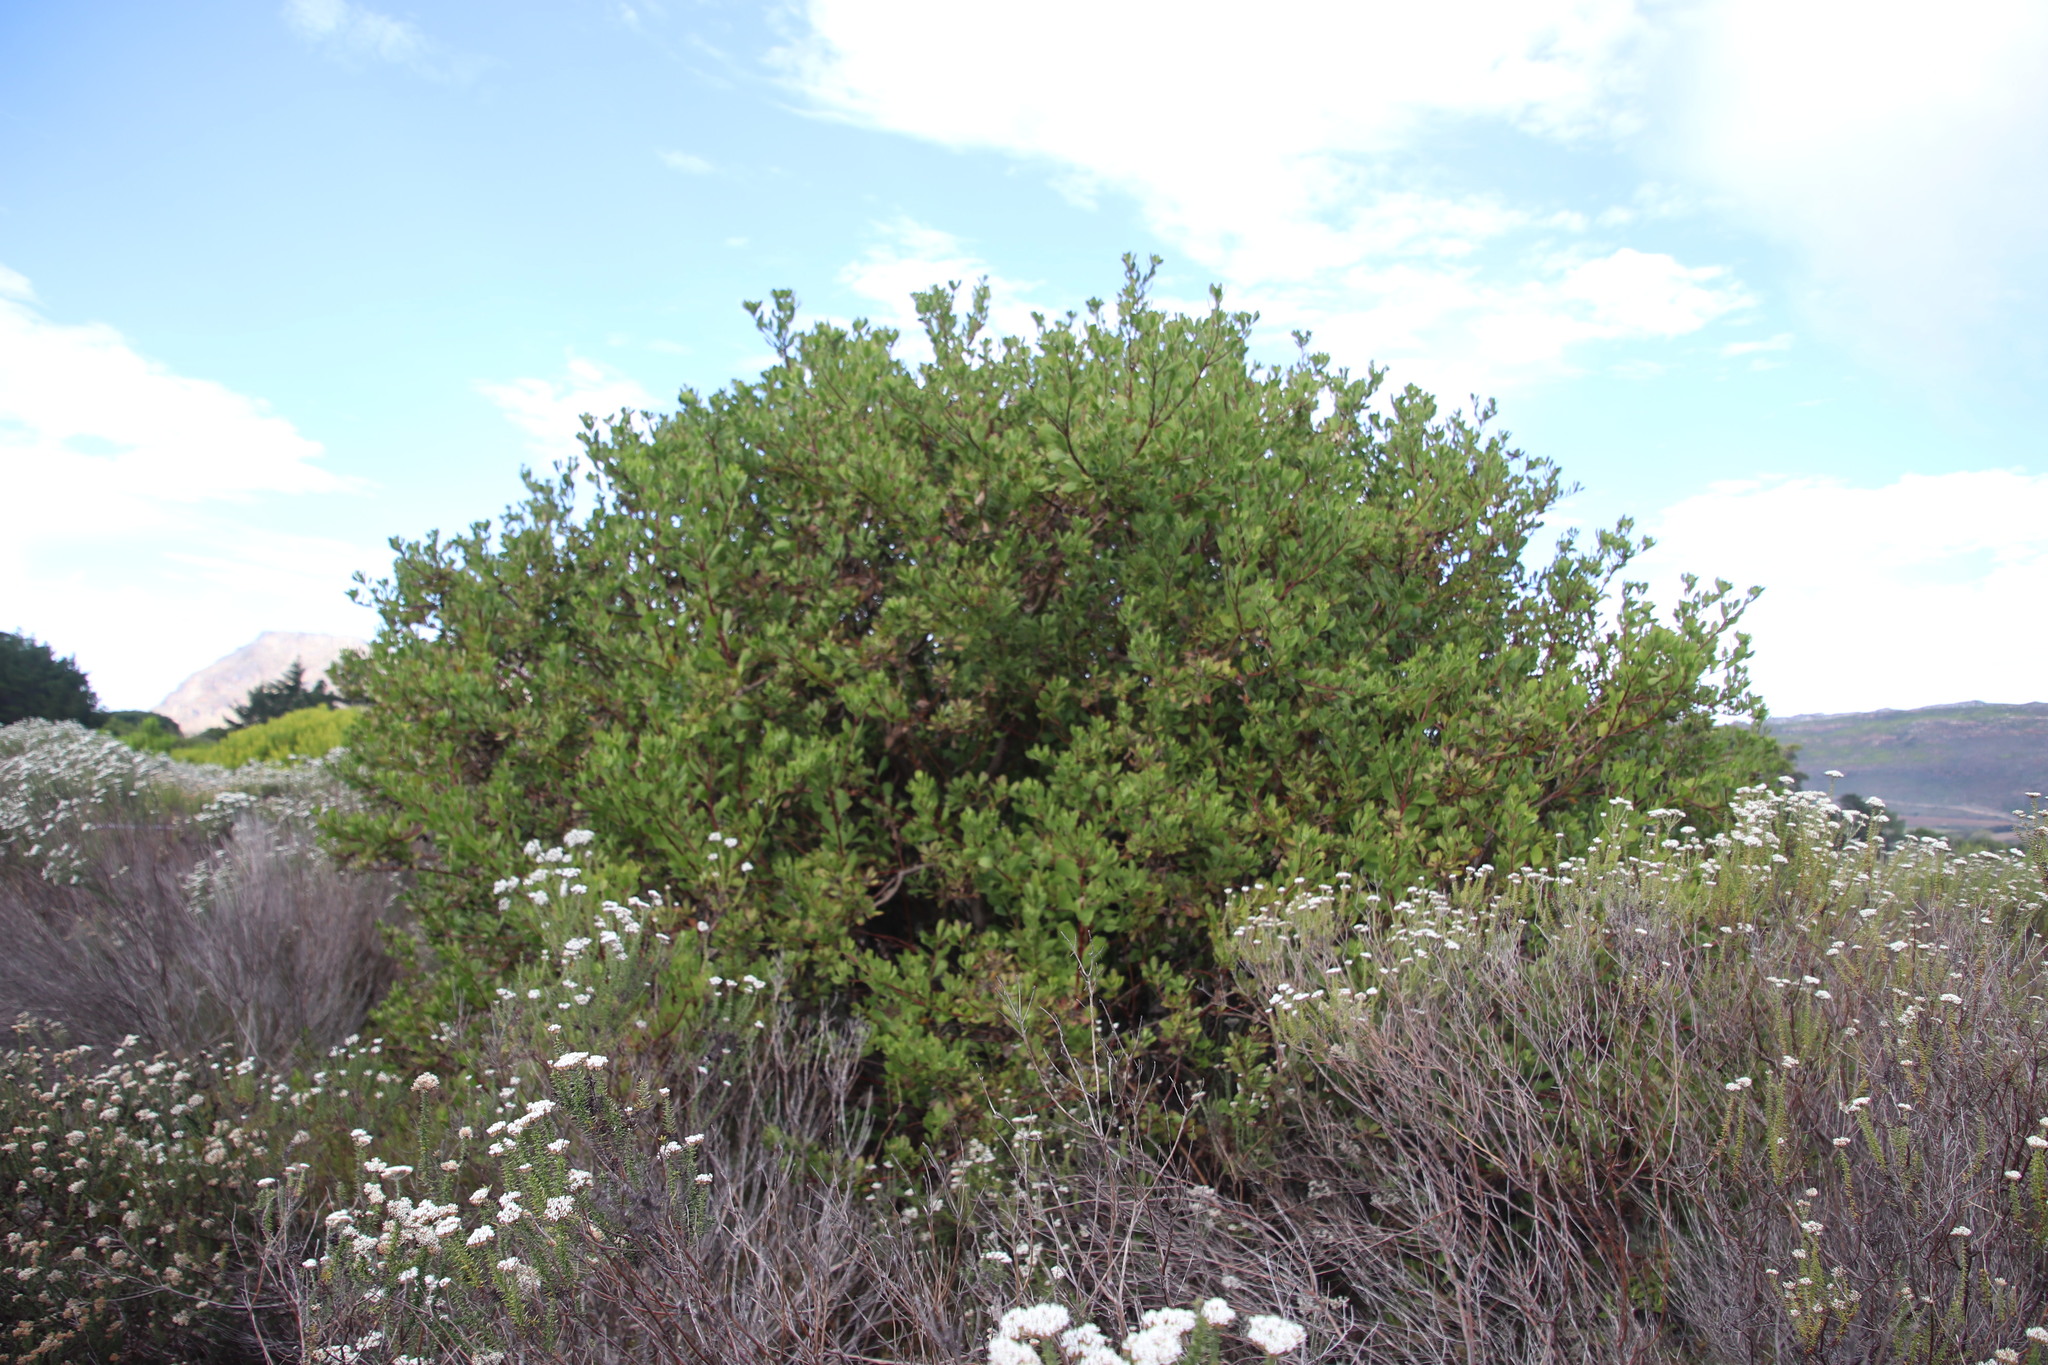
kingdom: Plantae
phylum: Tracheophyta
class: Magnoliopsida
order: Asterales
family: Asteraceae
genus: Osteospermum
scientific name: Osteospermum moniliferum
